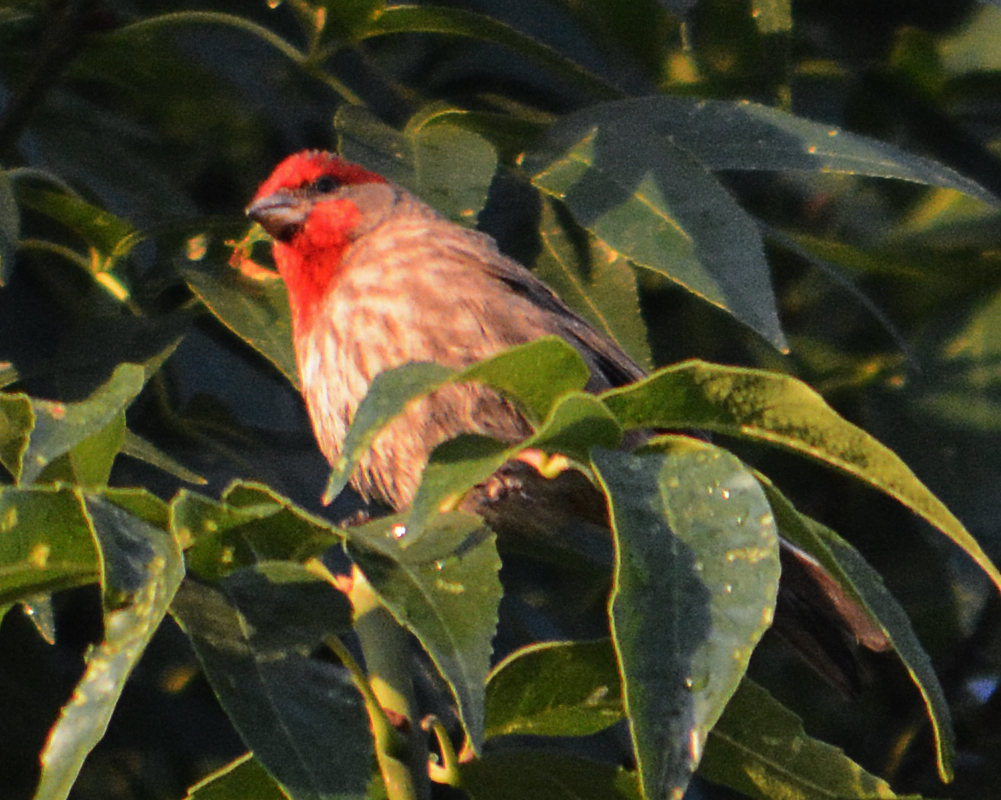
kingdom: Animalia
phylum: Chordata
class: Aves
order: Passeriformes
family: Fringillidae
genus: Haemorhous
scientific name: Haemorhous mexicanus
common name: House finch
